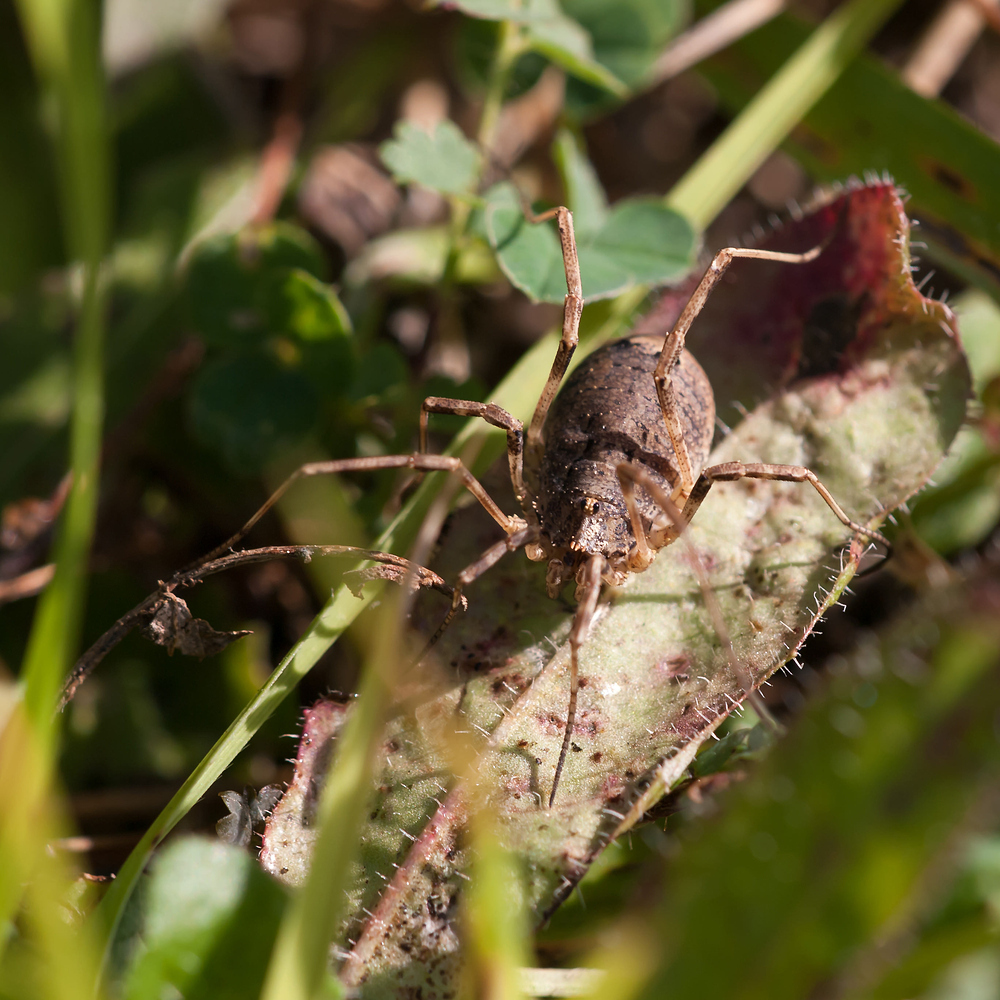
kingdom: Animalia
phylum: Arthropoda
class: Arachnida
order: Opiliones
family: Phalangiidae
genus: Odiellus
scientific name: Odiellus spinosus
